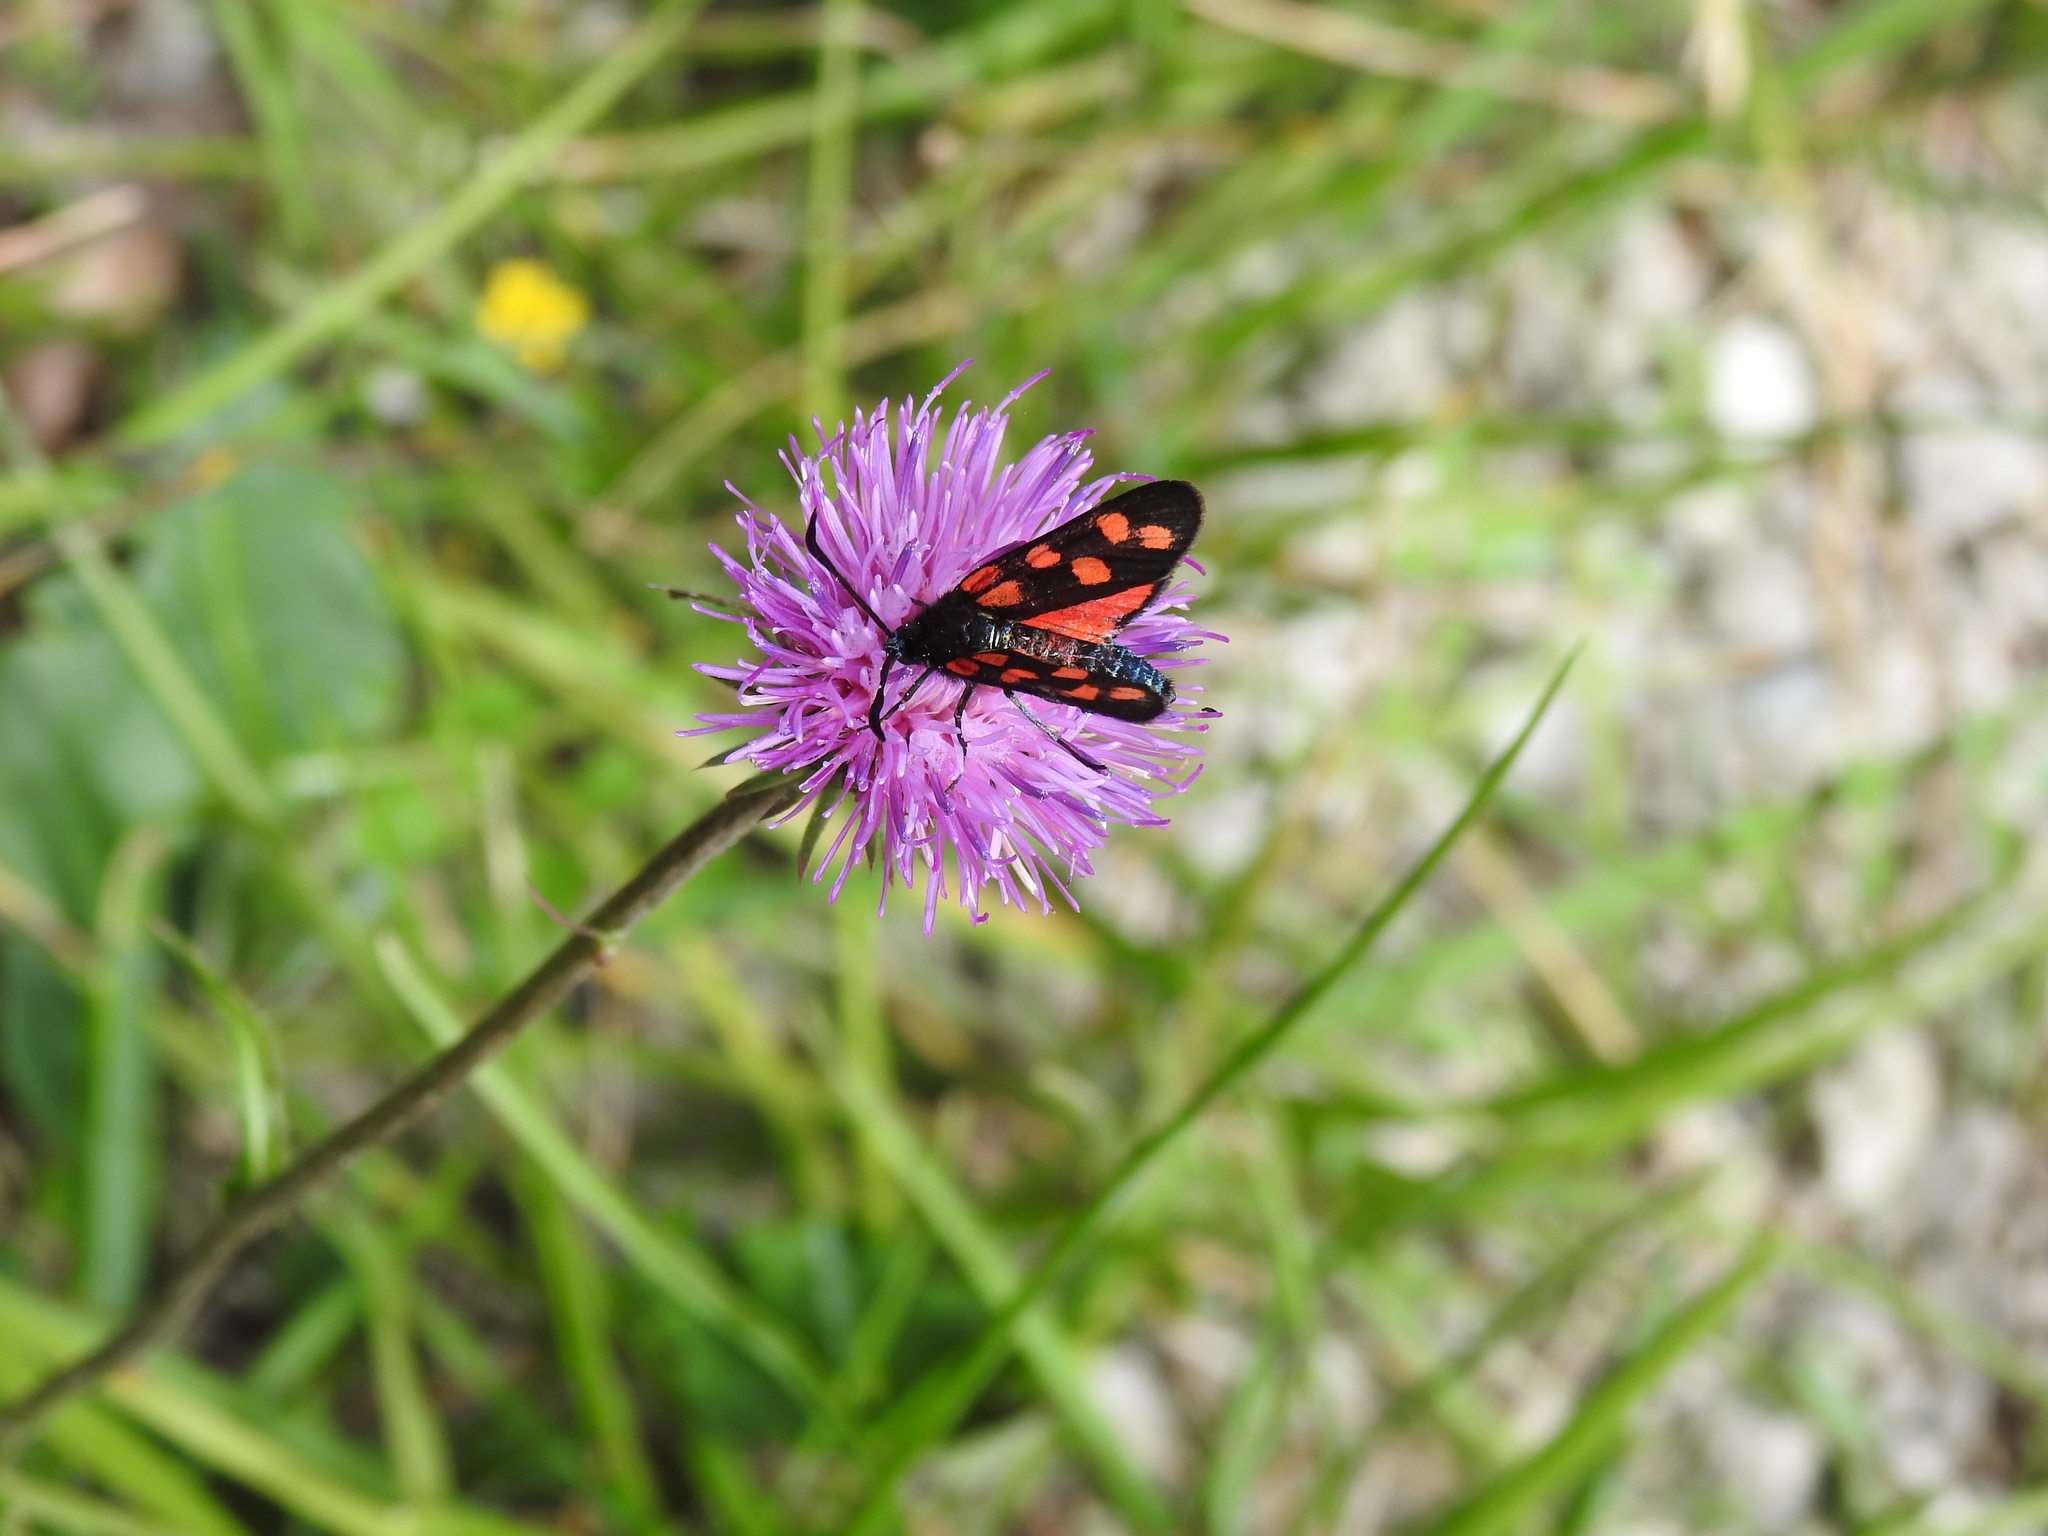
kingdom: Animalia
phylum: Arthropoda
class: Insecta
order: Lepidoptera
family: Zygaenidae
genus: Zygaena
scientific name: Zygaena transalpina
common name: Southern six spot burnet
